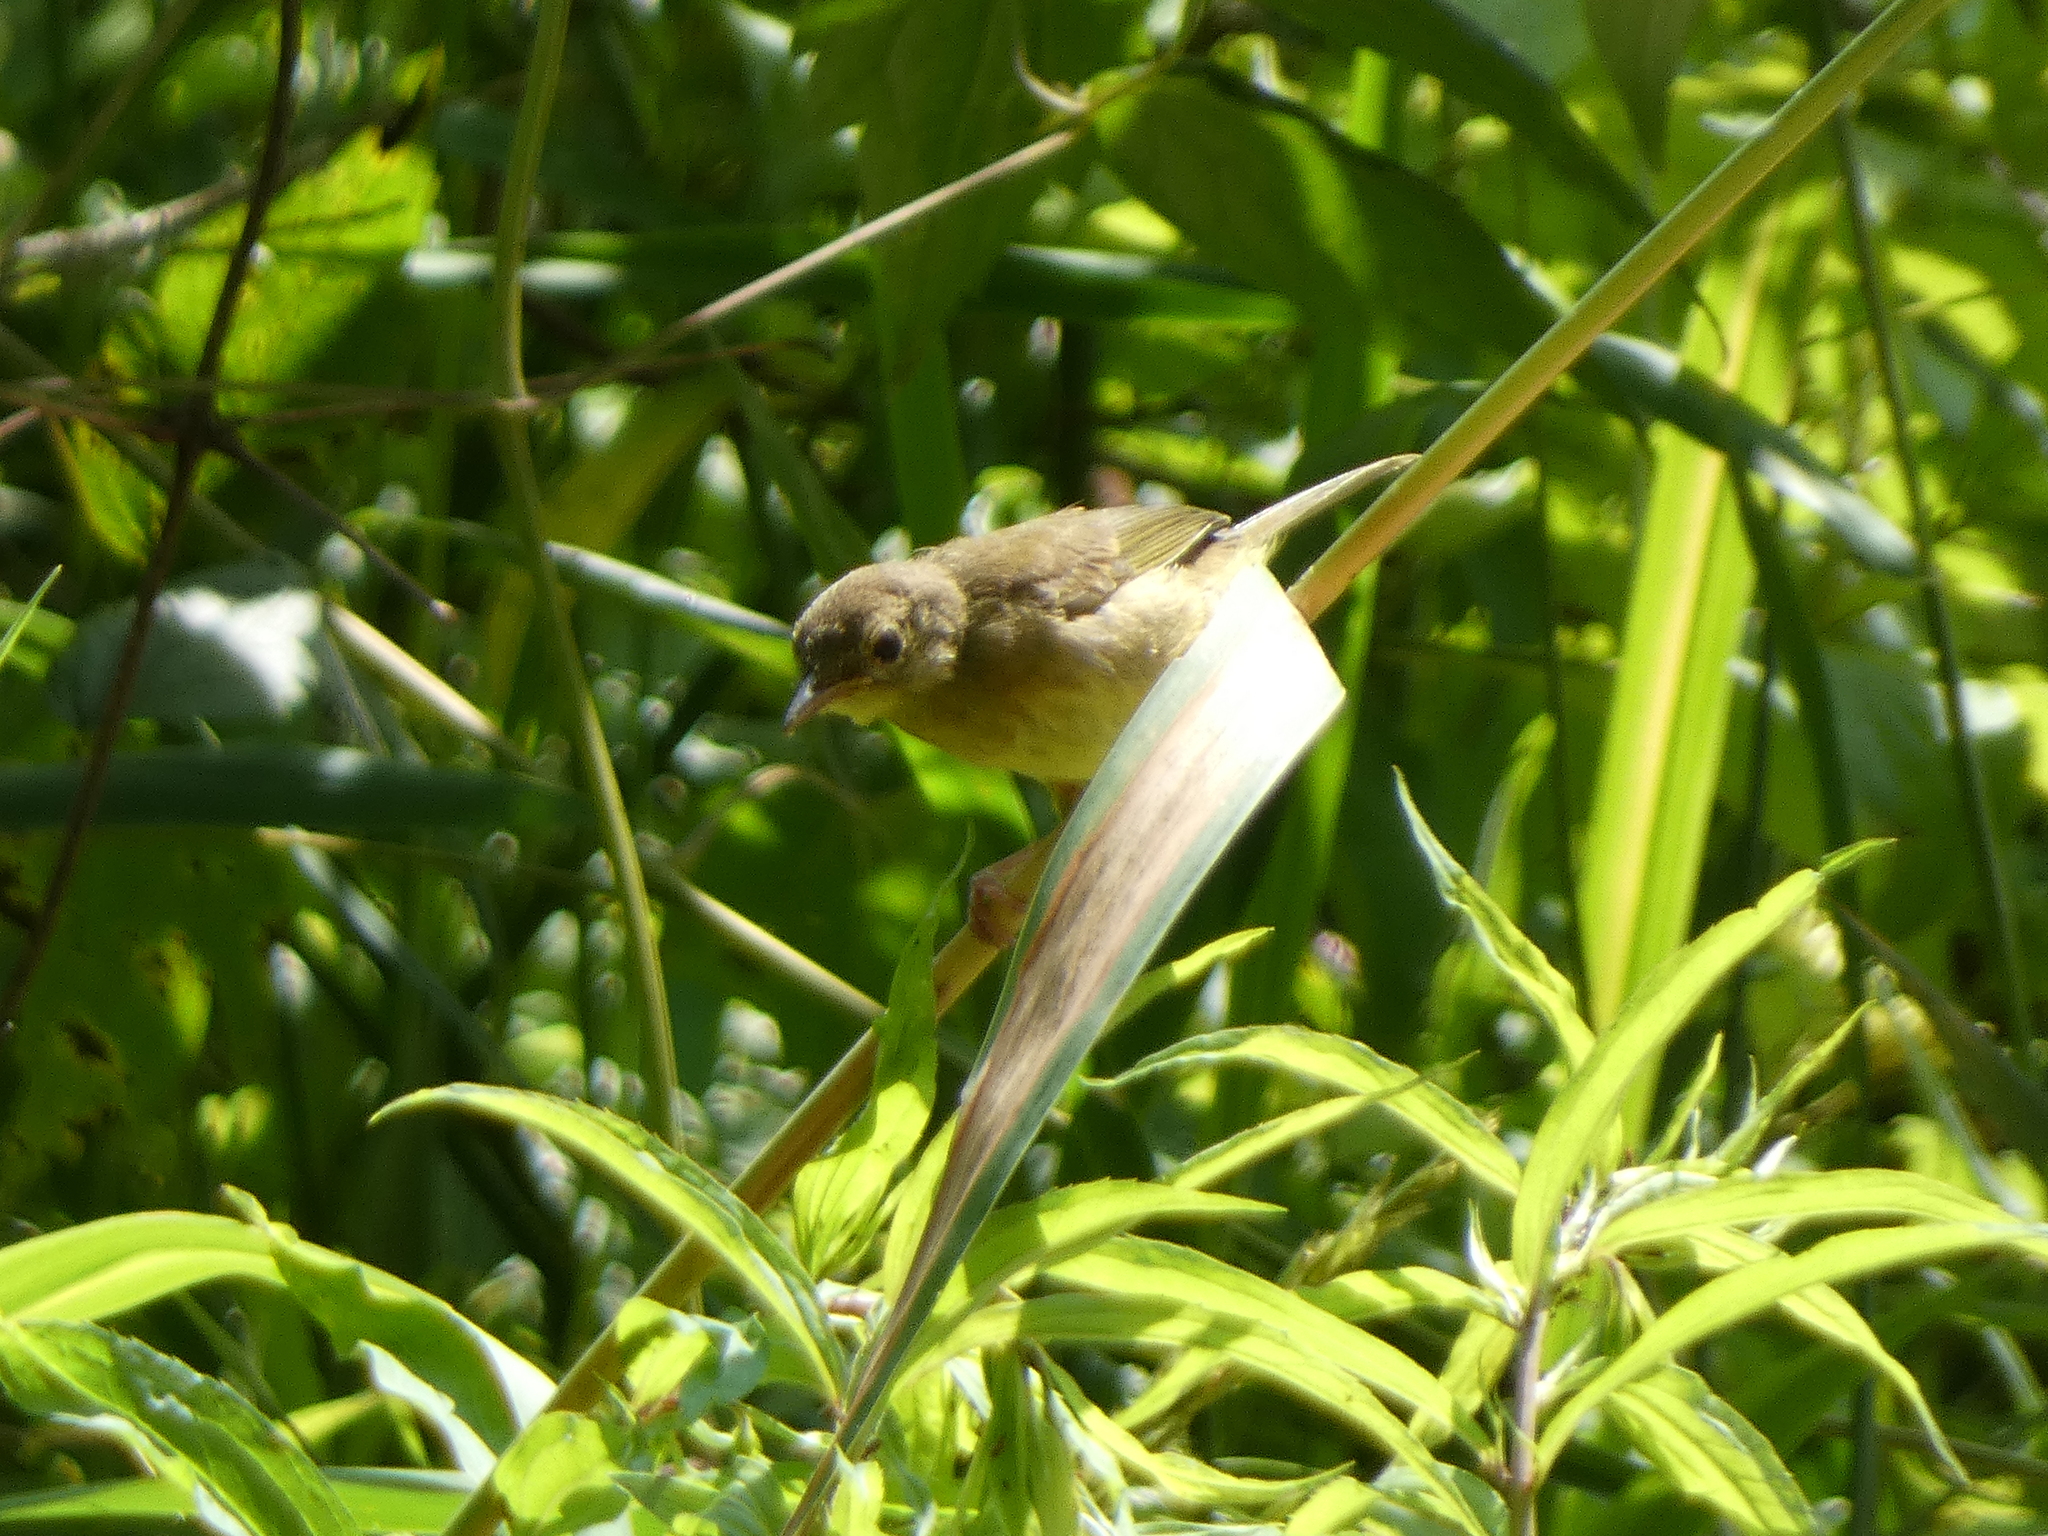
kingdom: Animalia
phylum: Chordata
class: Aves
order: Passeriformes
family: Parulidae
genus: Geothlypis
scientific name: Geothlypis trichas
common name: Common yellowthroat
